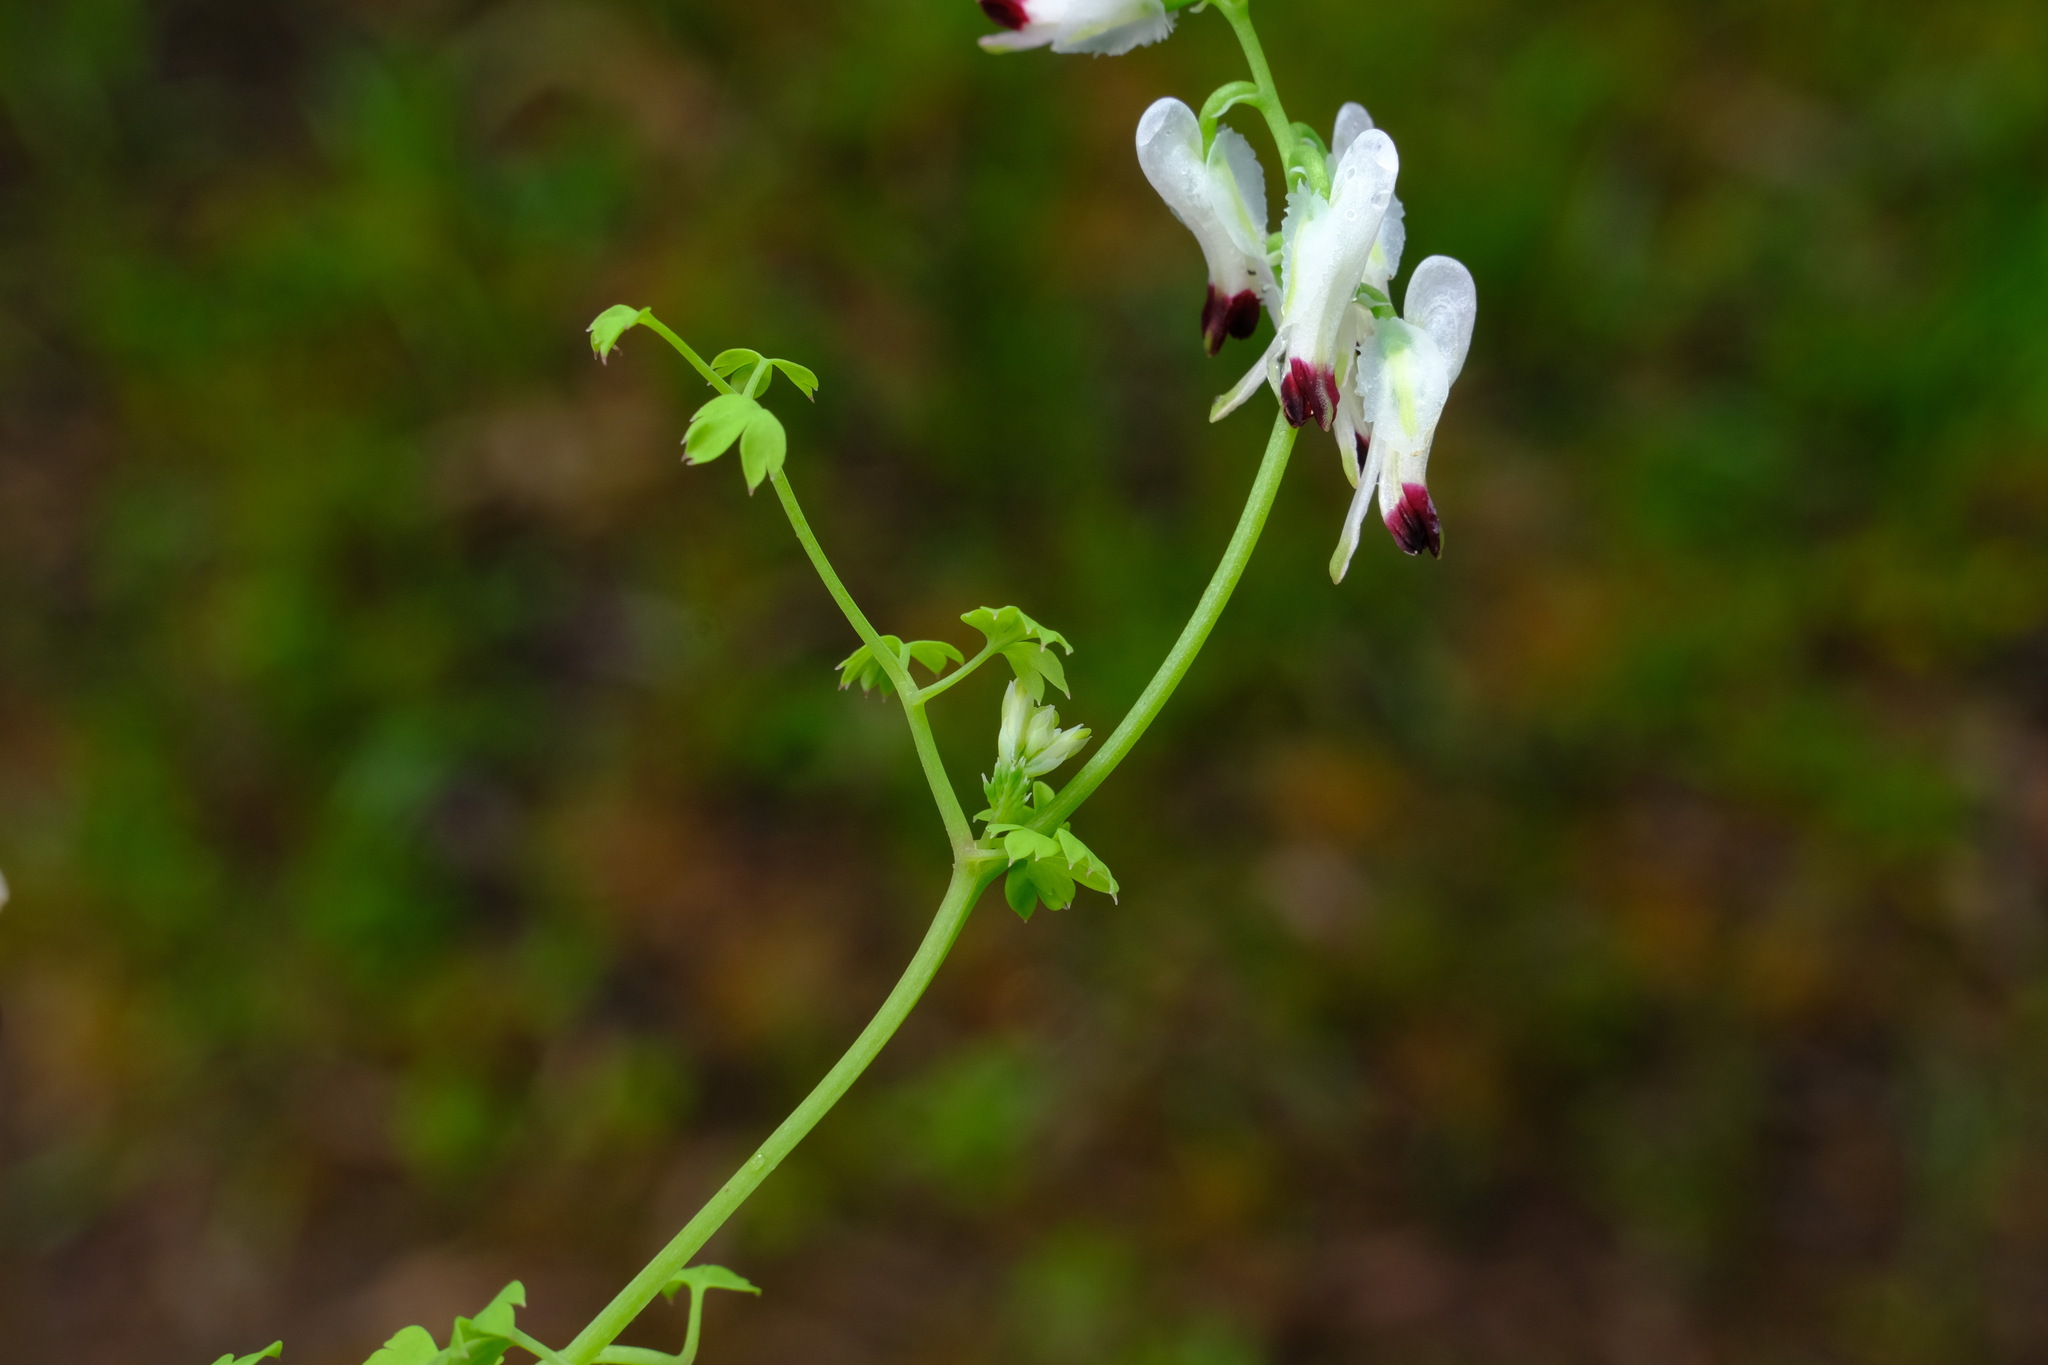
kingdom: Plantae
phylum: Tracheophyta
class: Magnoliopsida
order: Ranunculales
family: Papaveraceae
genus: Fumaria
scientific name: Fumaria capreolata
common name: White ramping-fumitory
